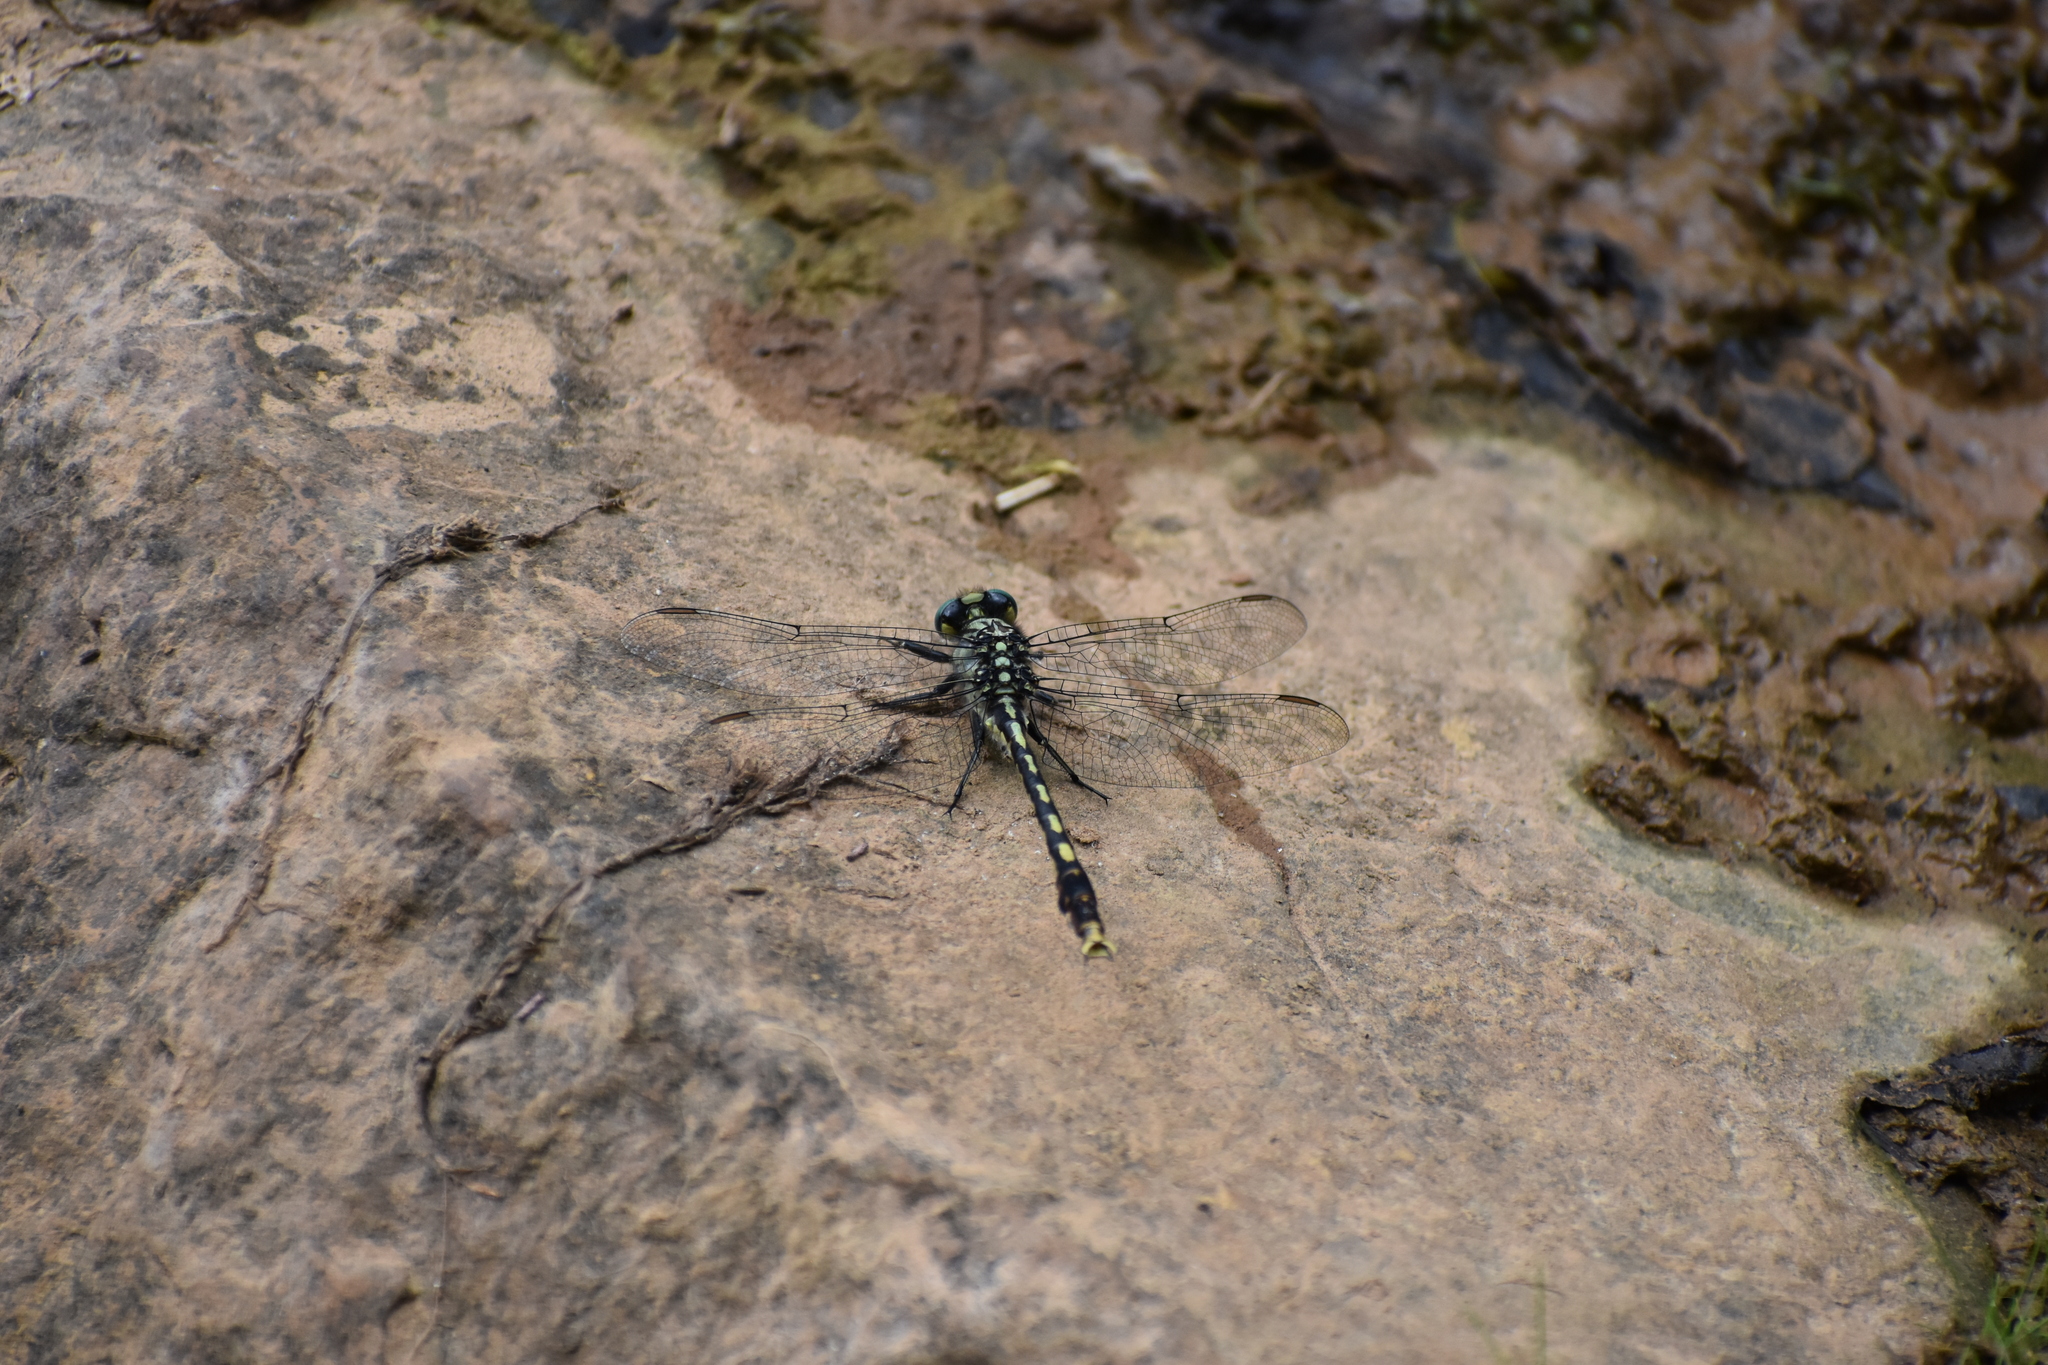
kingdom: Animalia
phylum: Arthropoda
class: Insecta
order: Odonata
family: Gomphidae
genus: Arigomphus
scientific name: Arigomphus villosipes
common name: Unicorn clubtail
